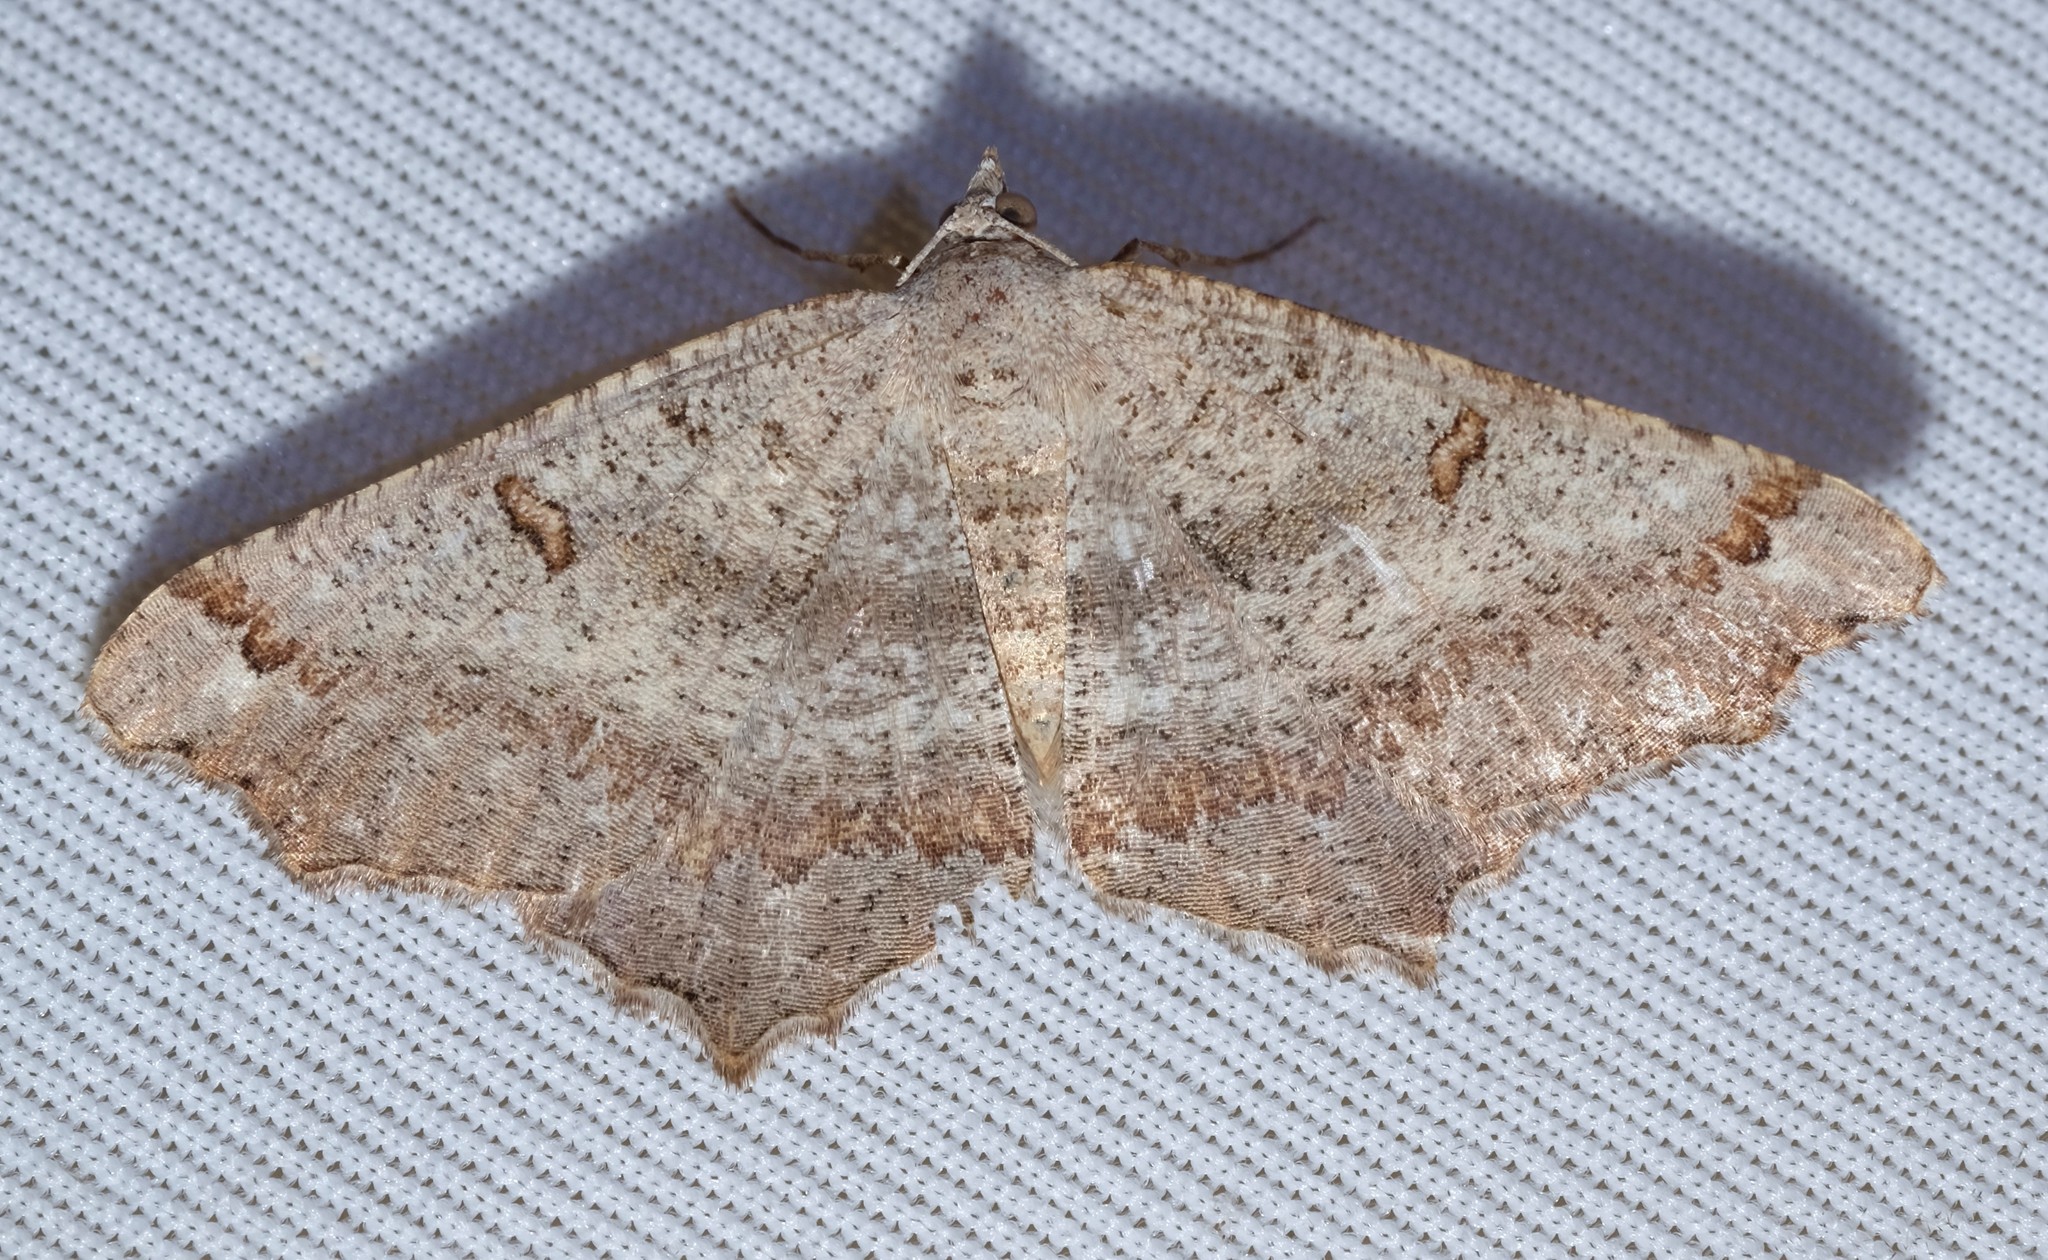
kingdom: Animalia
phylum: Arthropoda
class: Insecta
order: Lepidoptera
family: Geometridae
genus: Dissomorphia
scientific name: Dissomorphia australiaria
